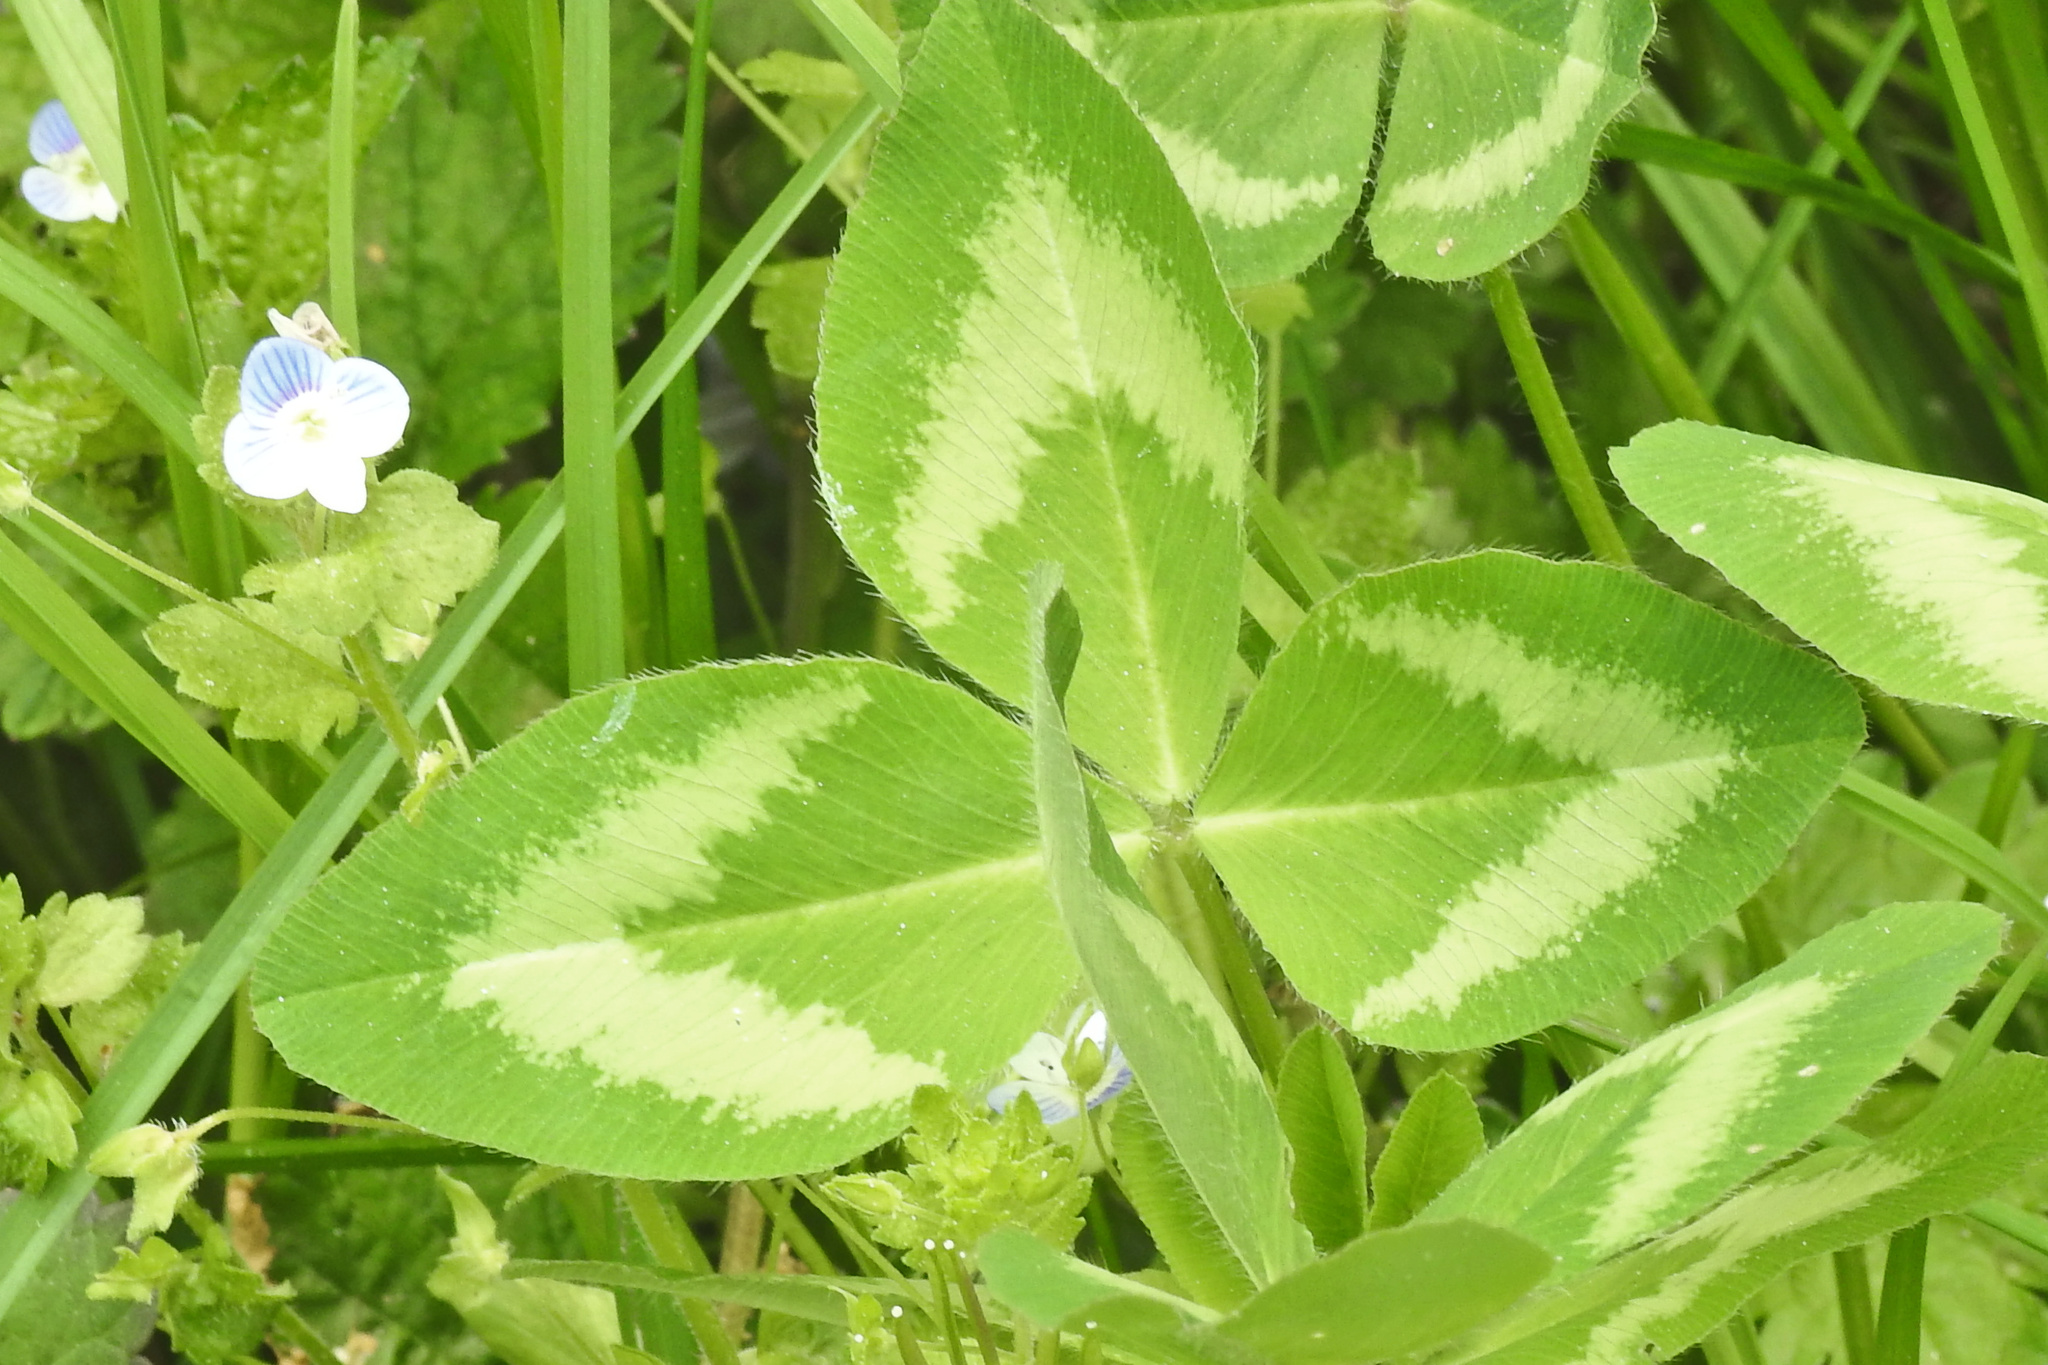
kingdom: Plantae
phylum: Tracheophyta
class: Magnoliopsida
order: Fabales
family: Fabaceae
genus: Trifolium
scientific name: Trifolium pratense
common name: Red clover
